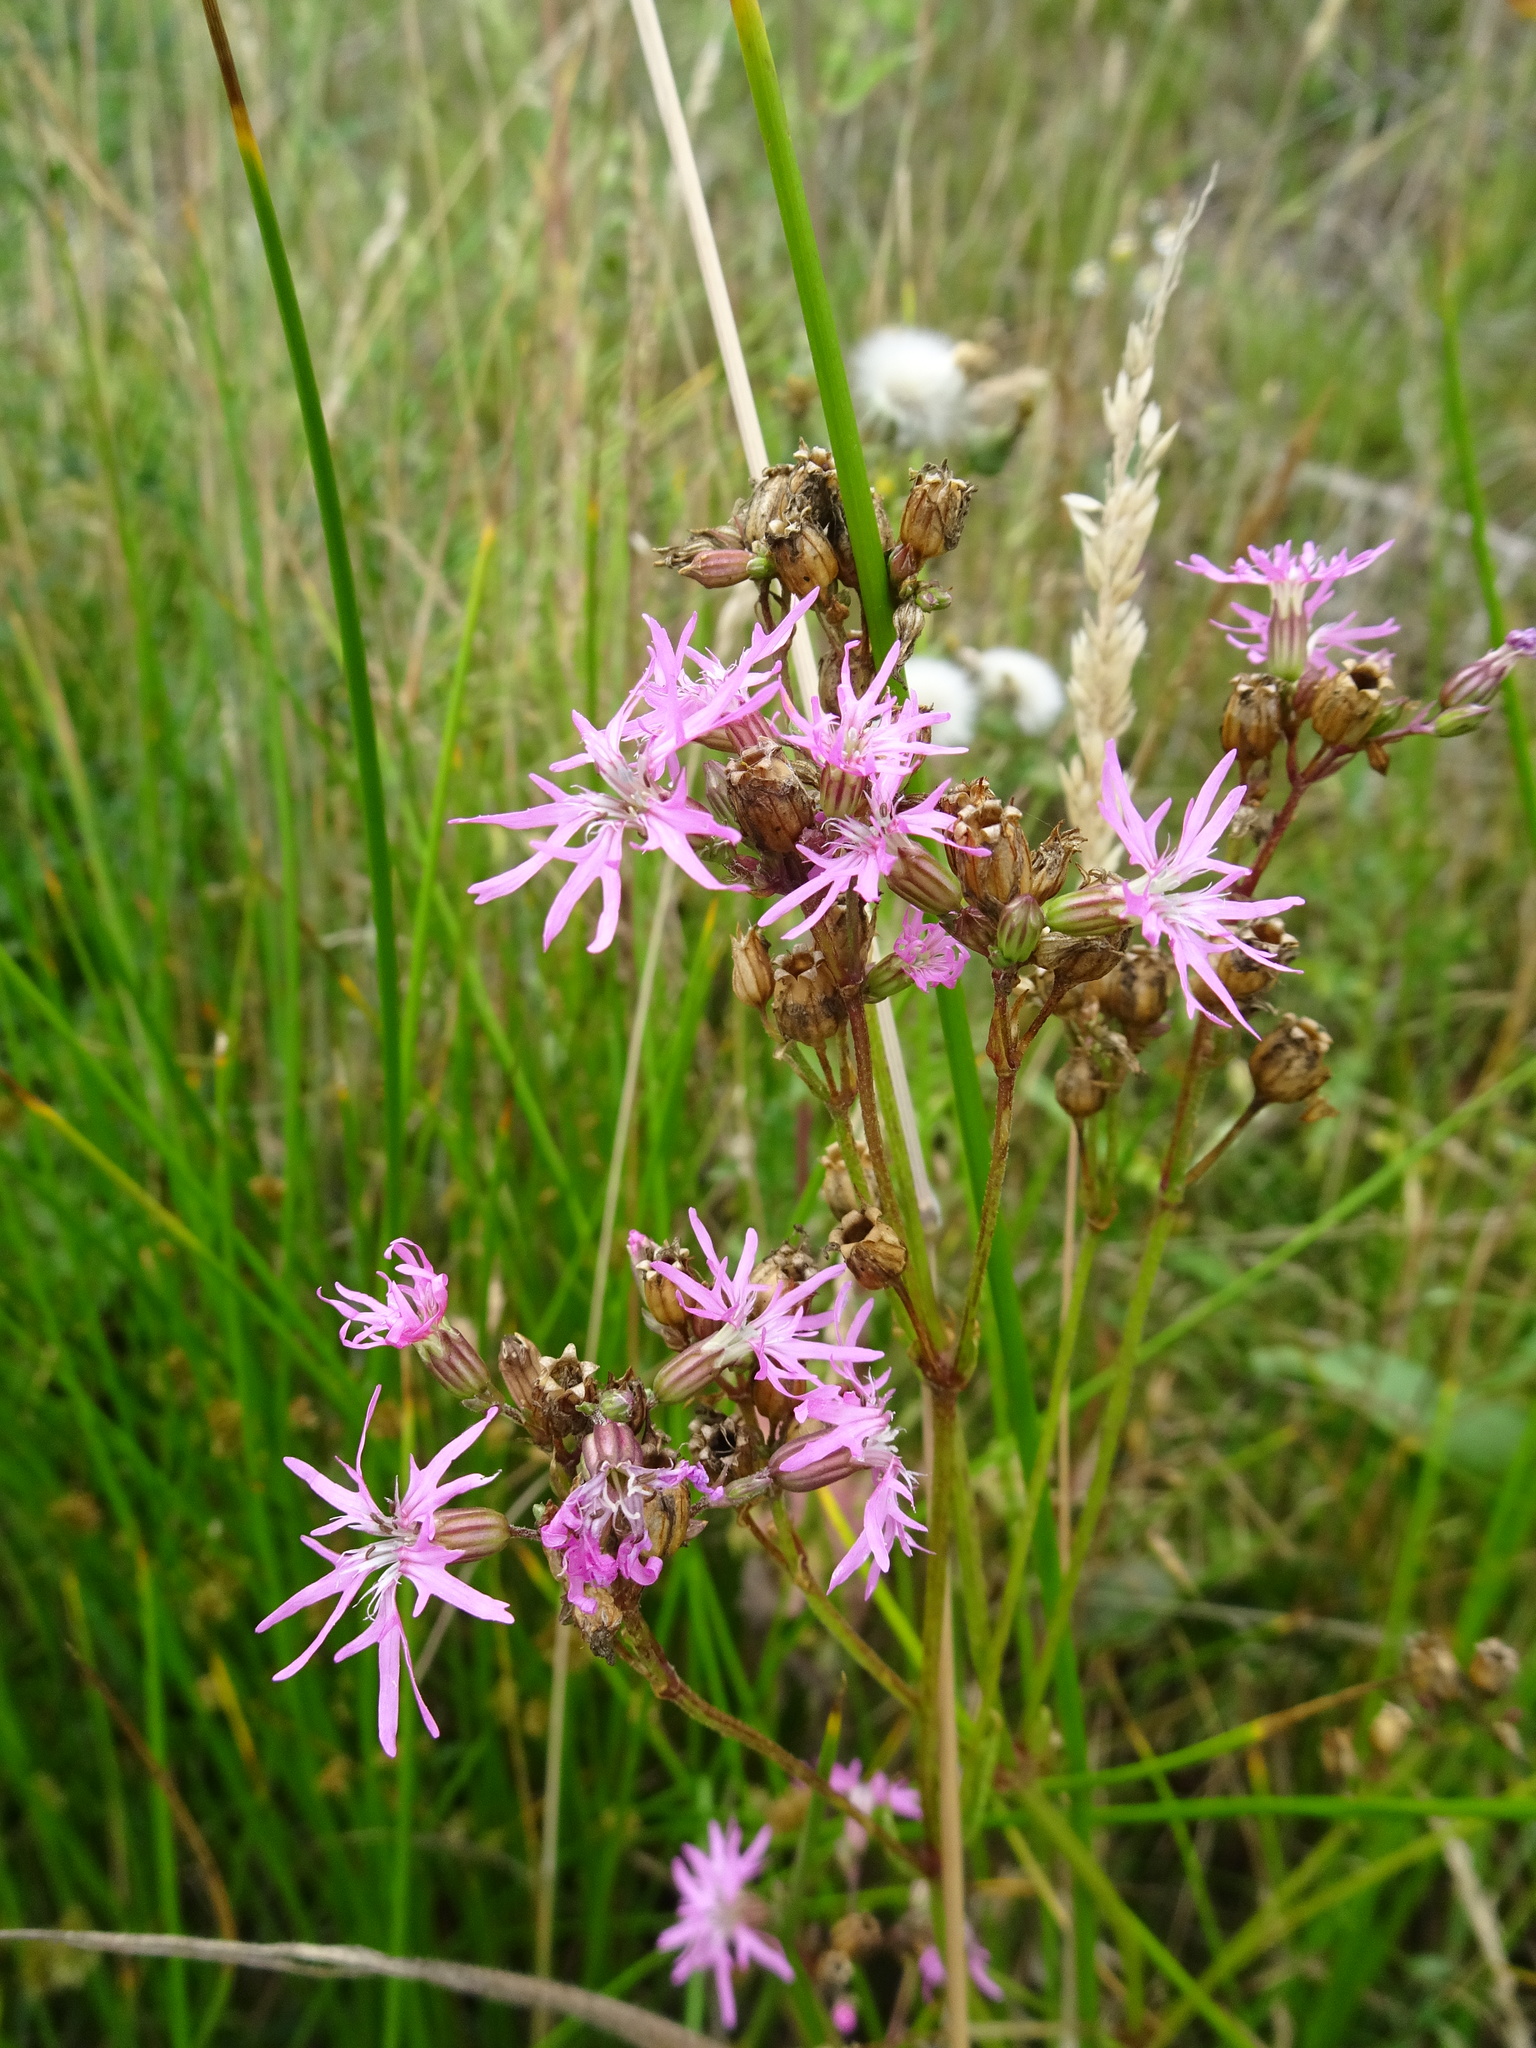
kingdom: Plantae
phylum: Tracheophyta
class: Magnoliopsida
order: Caryophyllales
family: Caryophyllaceae
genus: Silene
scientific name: Silene flos-cuculi
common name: Ragged-robin
